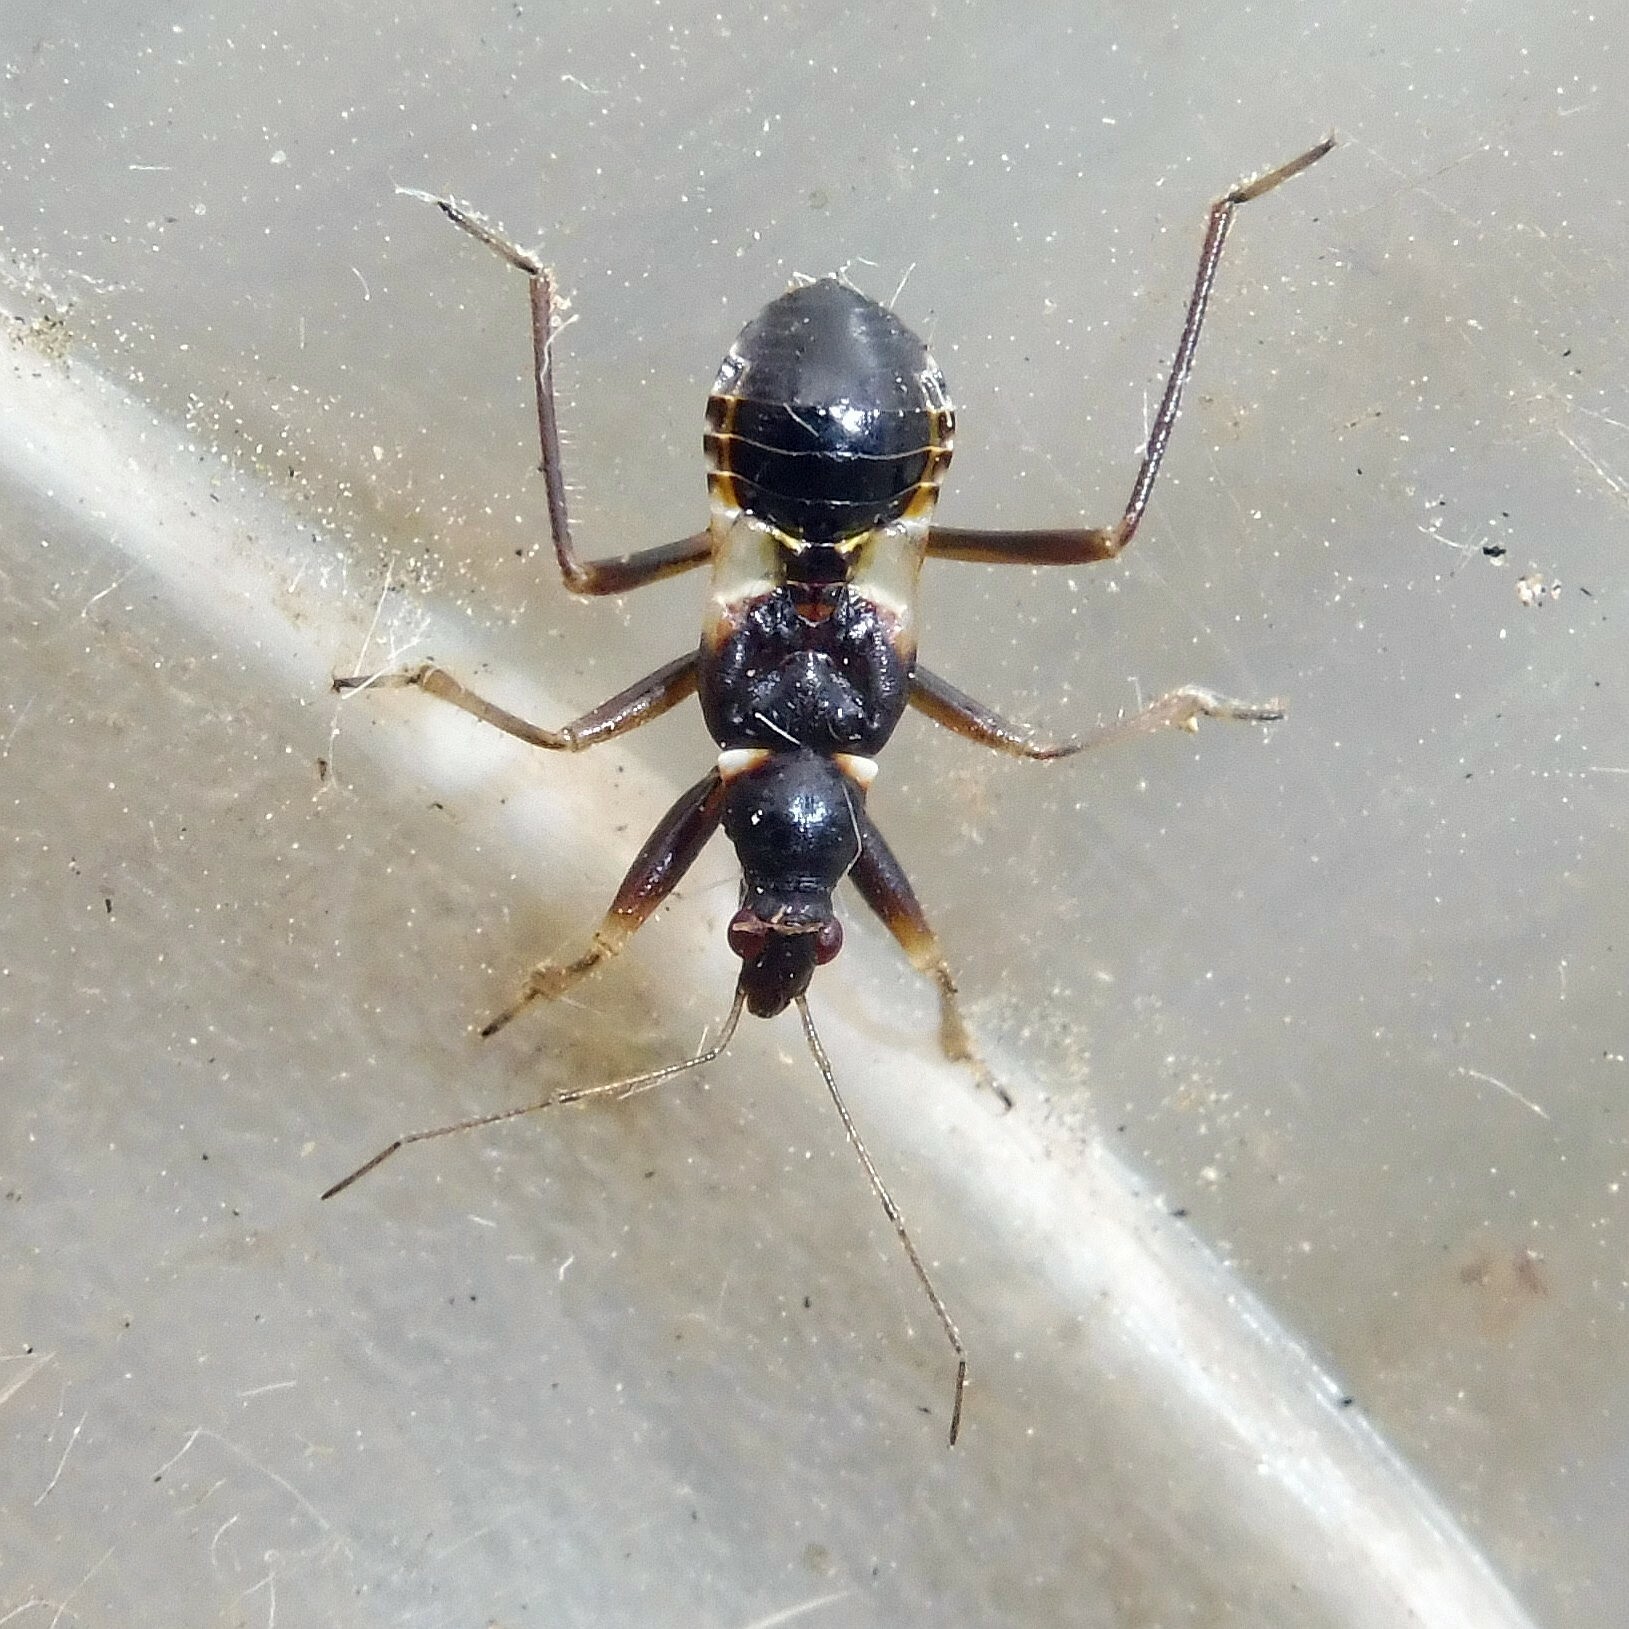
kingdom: Animalia
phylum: Arthropoda
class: Insecta
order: Hemiptera
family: Nabidae
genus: Himacerus
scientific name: Himacerus mirmicoides
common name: Ant damsel bug
